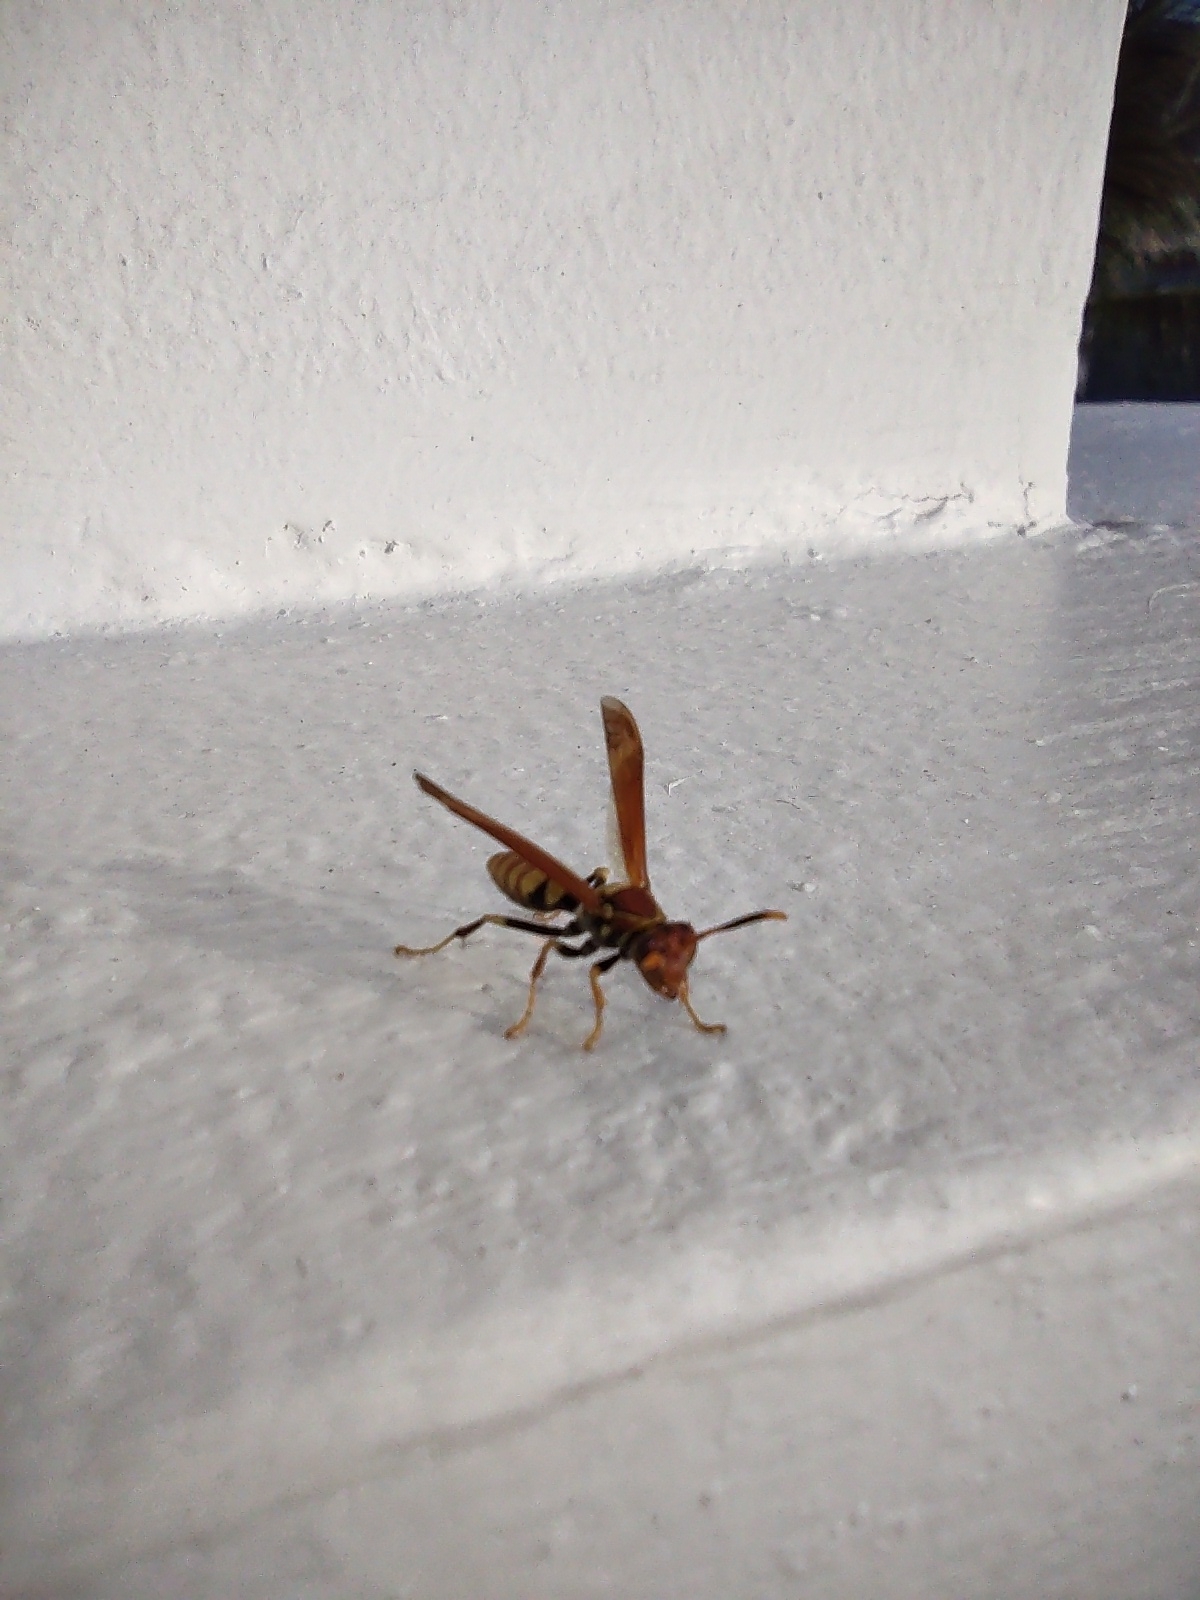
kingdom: Animalia
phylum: Arthropoda
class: Insecta
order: Hymenoptera
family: Eumenidae
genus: Polistes
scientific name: Polistes versicolor
